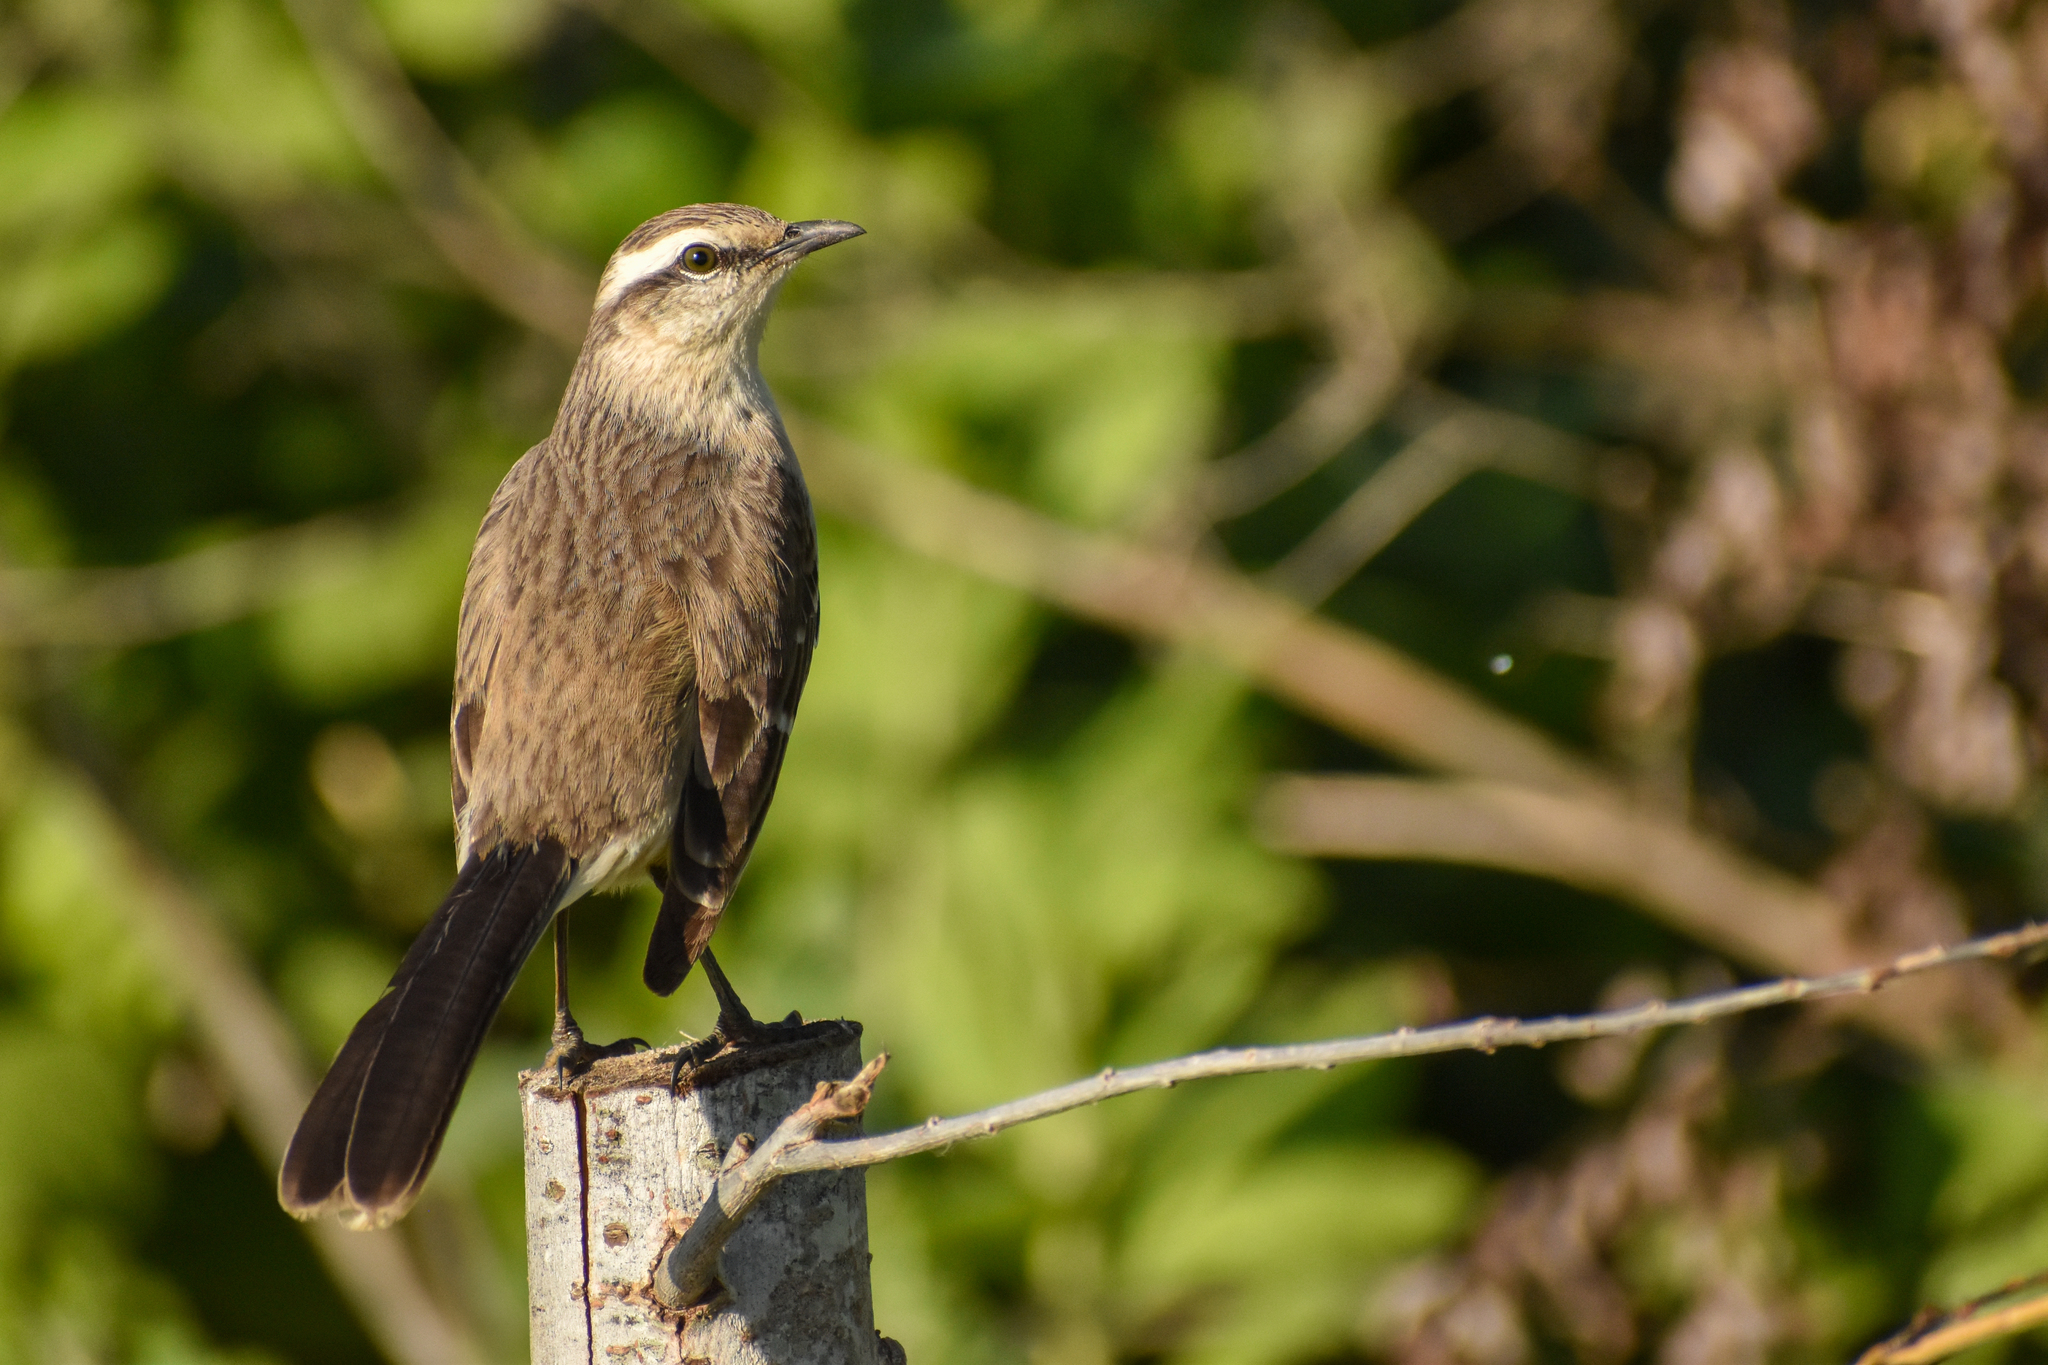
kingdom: Animalia
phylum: Chordata
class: Aves
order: Passeriformes
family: Mimidae
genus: Mimus
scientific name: Mimus saturninus
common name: Chalk-browed mockingbird
